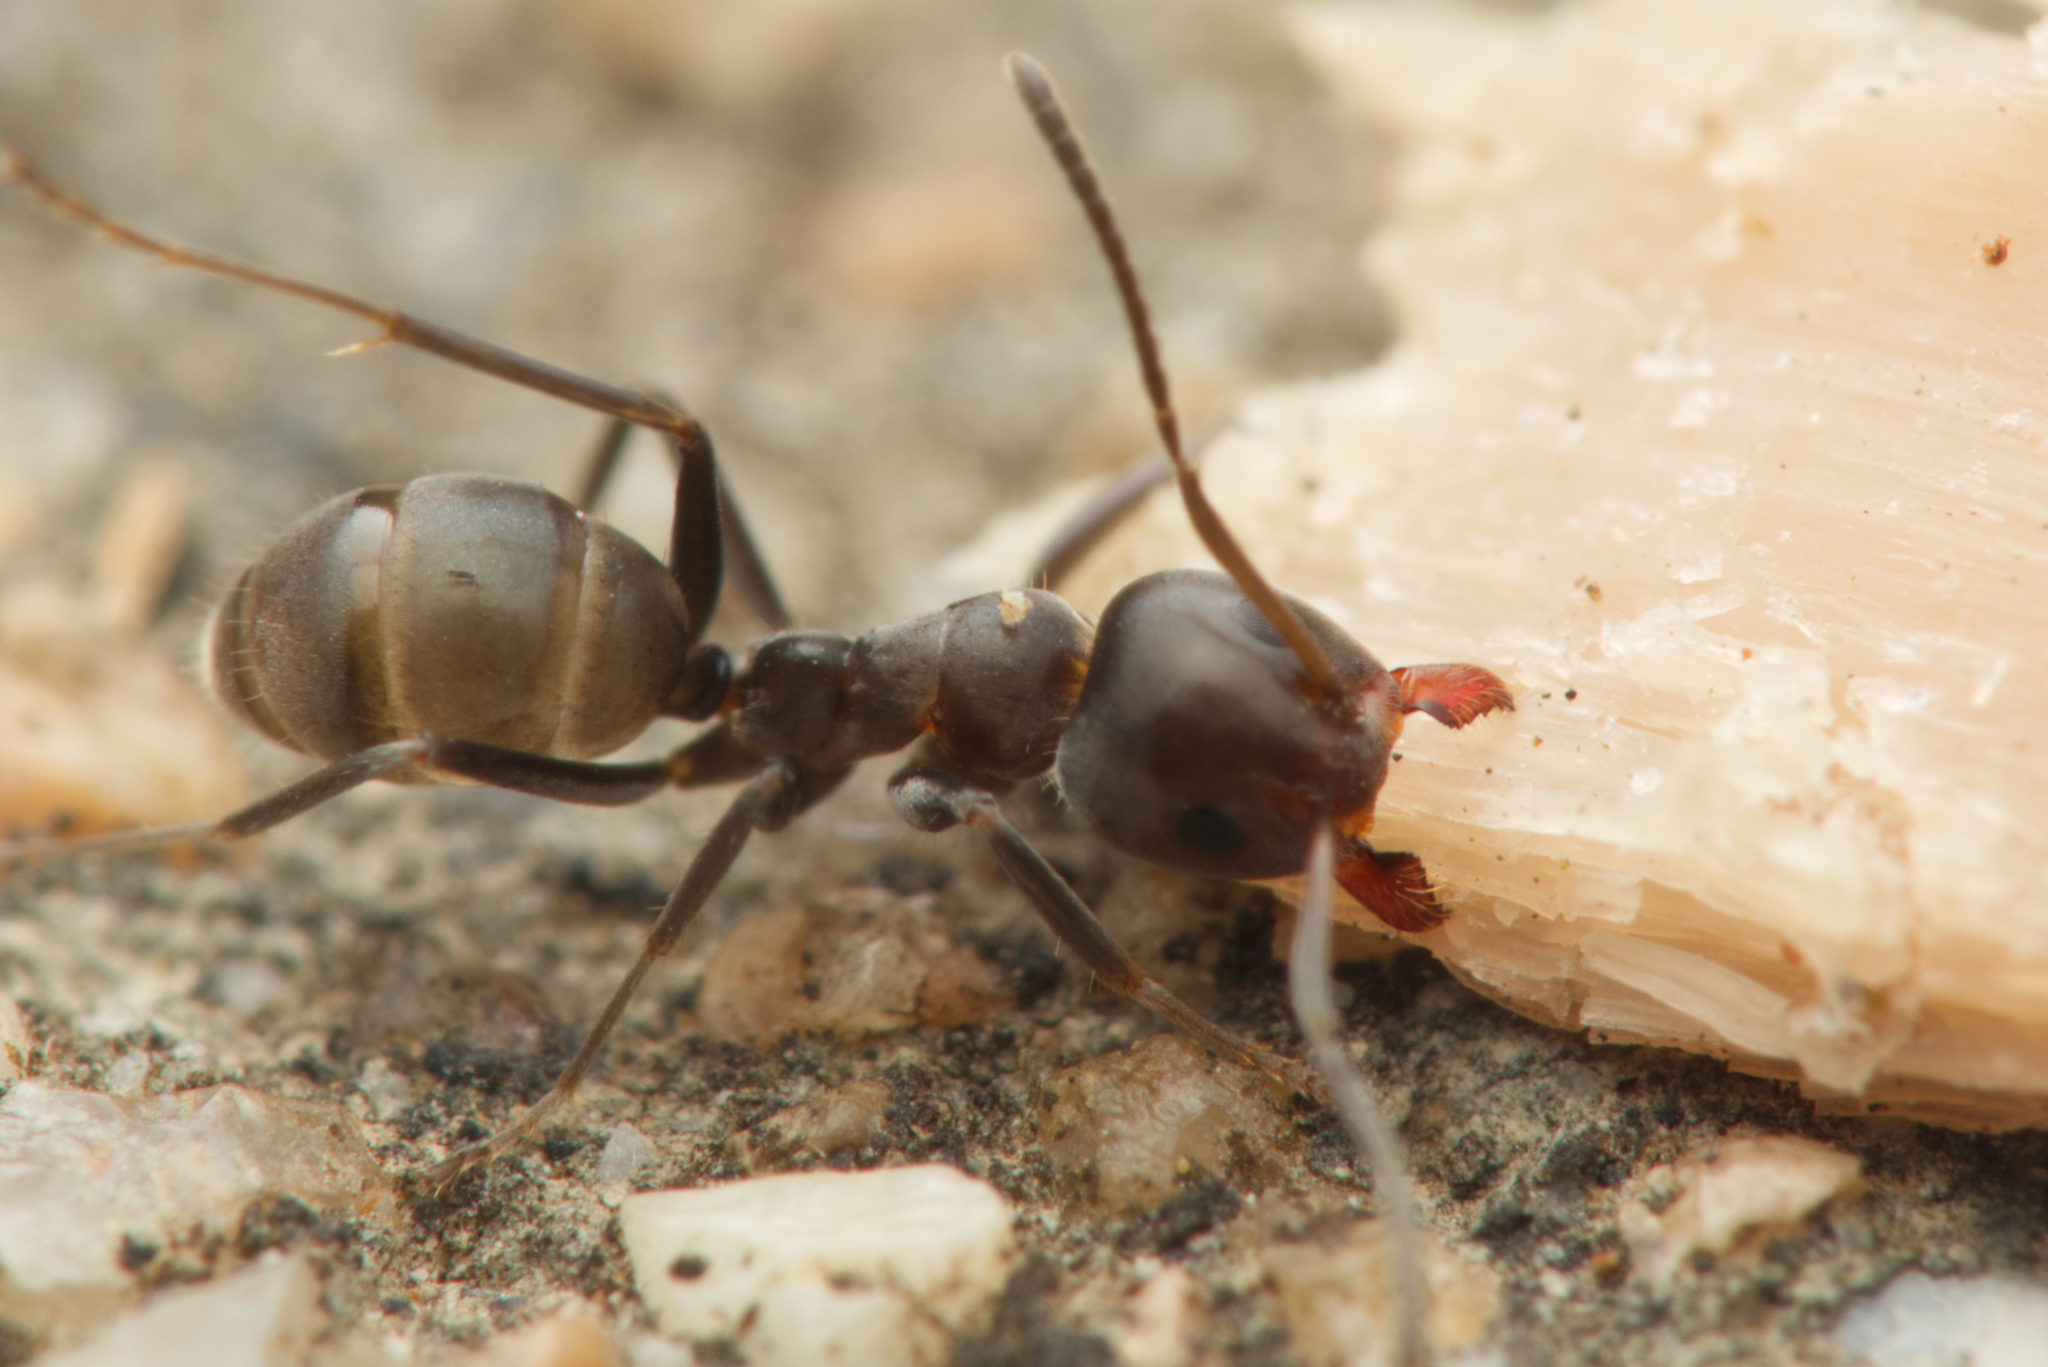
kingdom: Animalia
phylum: Arthropoda
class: Insecta
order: Hymenoptera
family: Formicidae
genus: Iridomyrmex
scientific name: Iridomyrmex rufoniger
